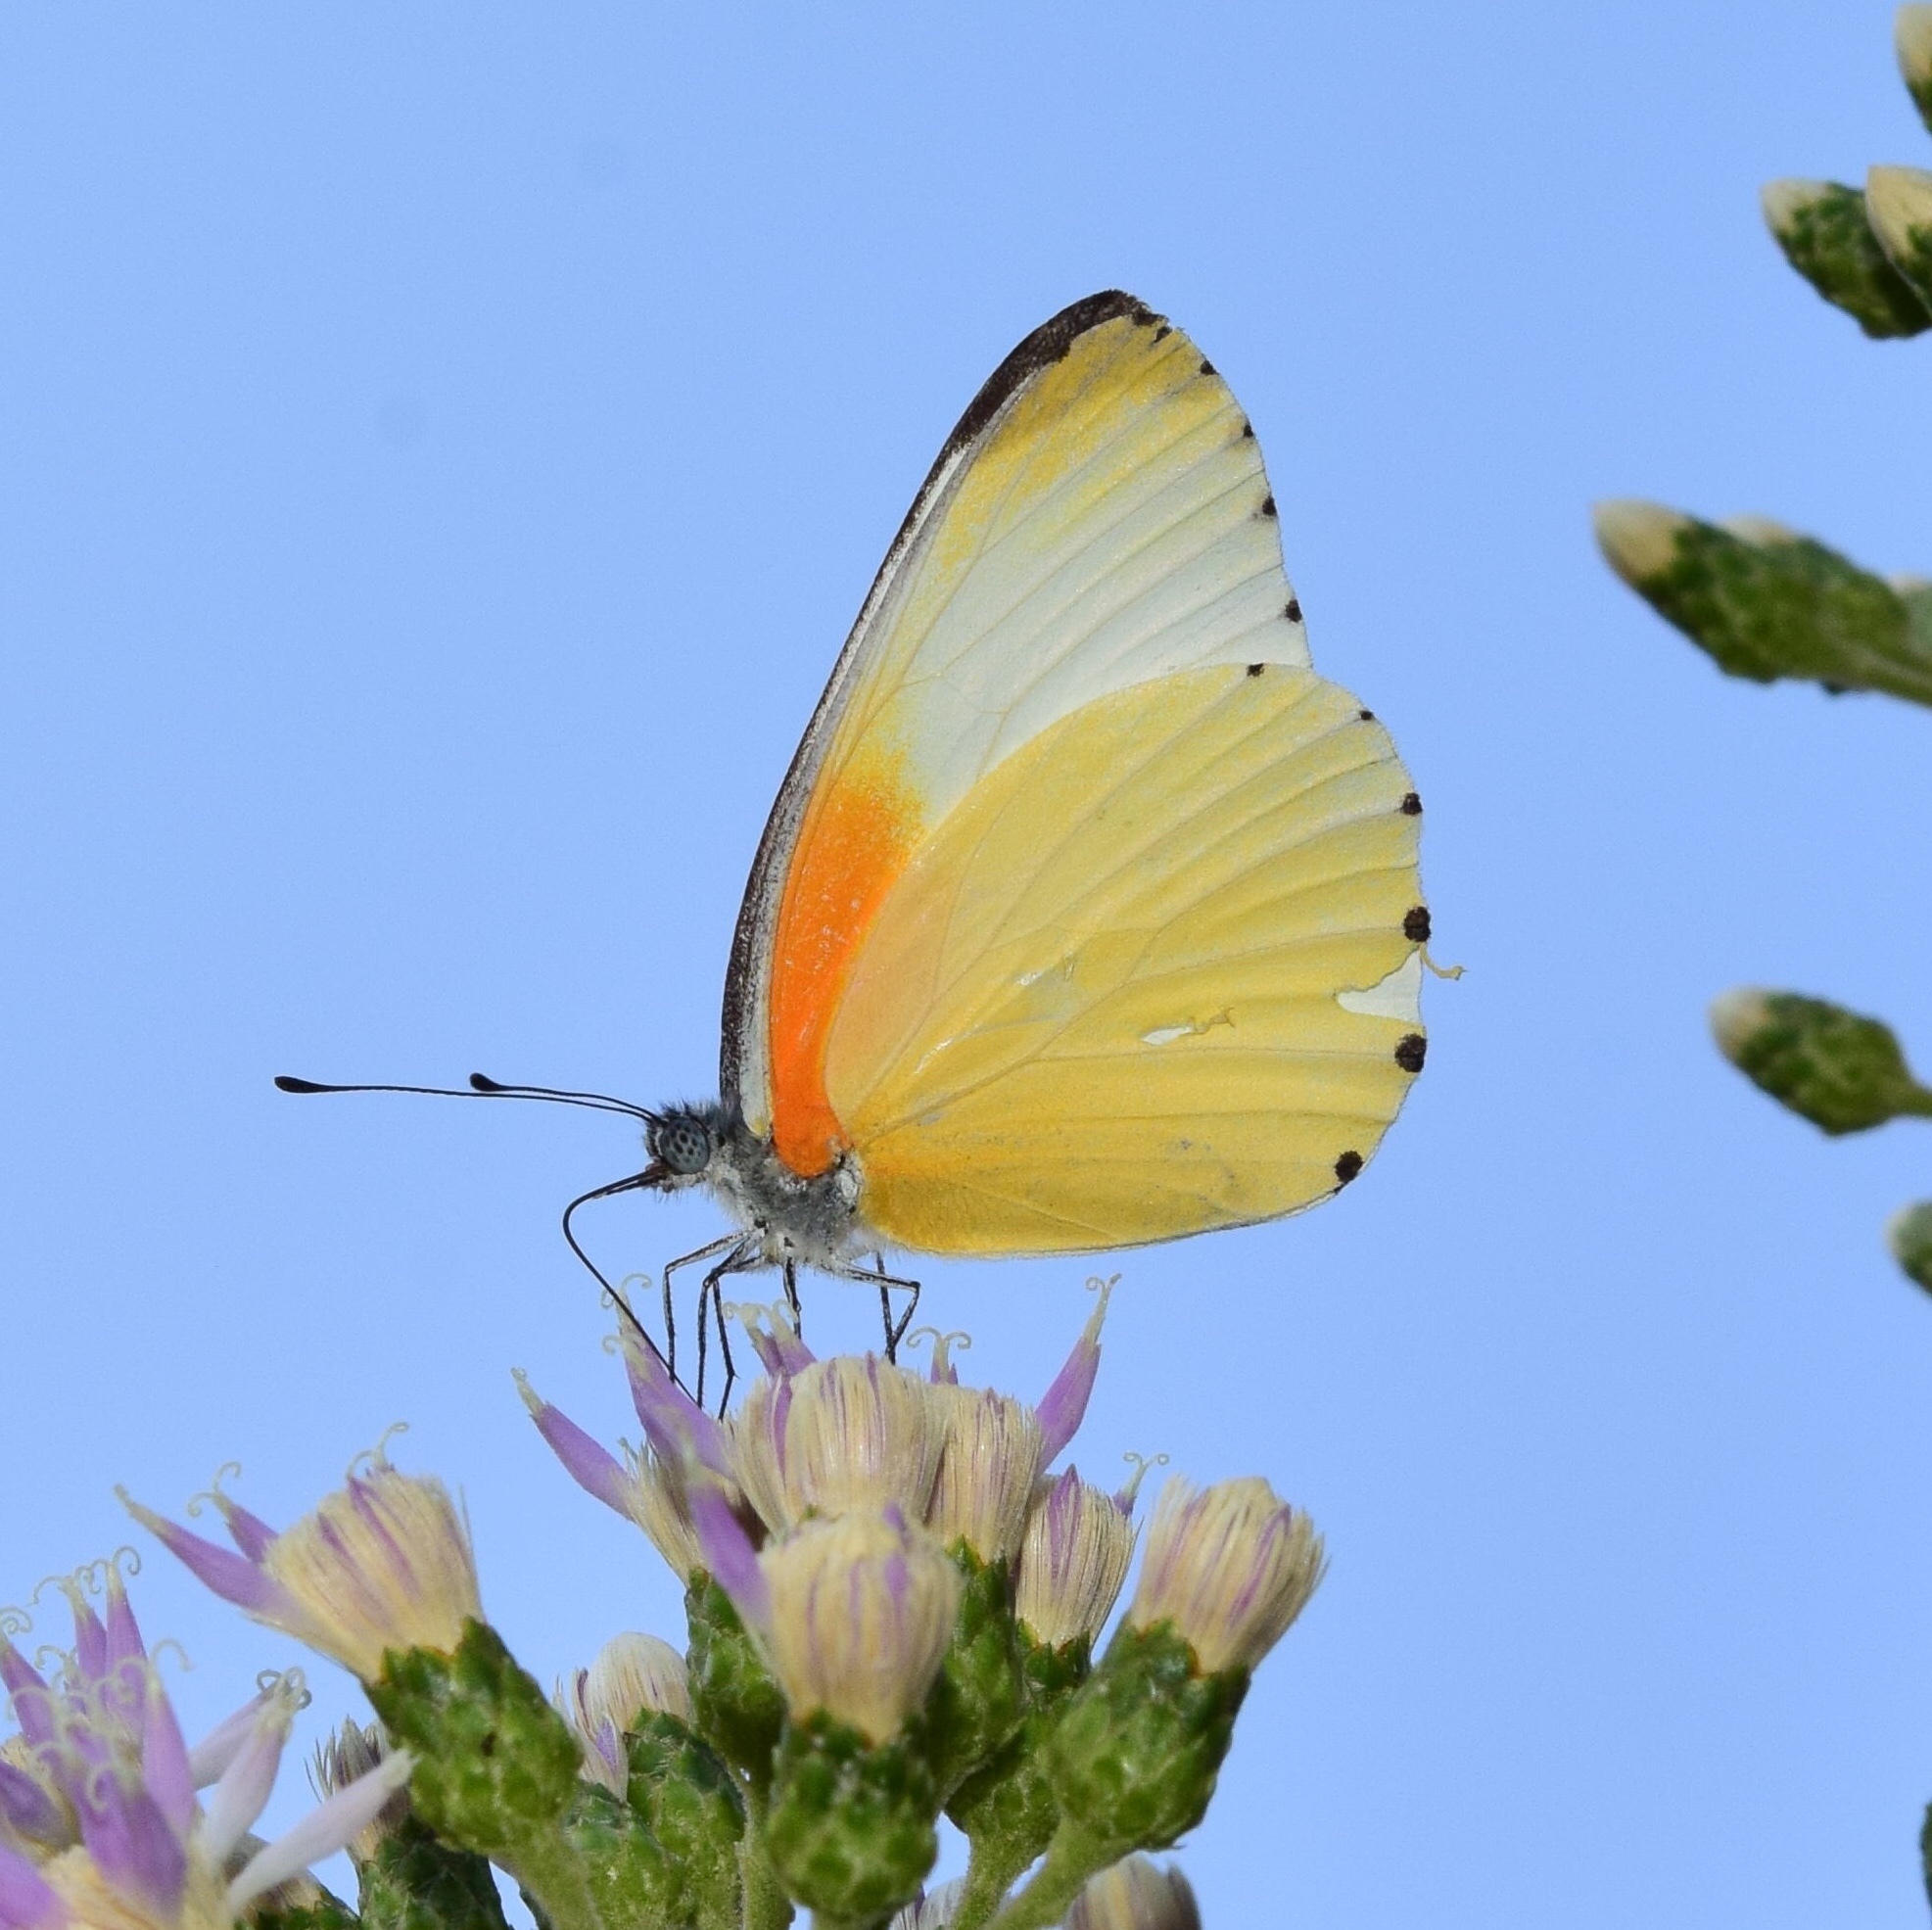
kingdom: Animalia
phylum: Arthropoda
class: Insecta
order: Lepidoptera
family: Pieridae
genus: Mylothris
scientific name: Mylothris agathina
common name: Eastern dotted border
